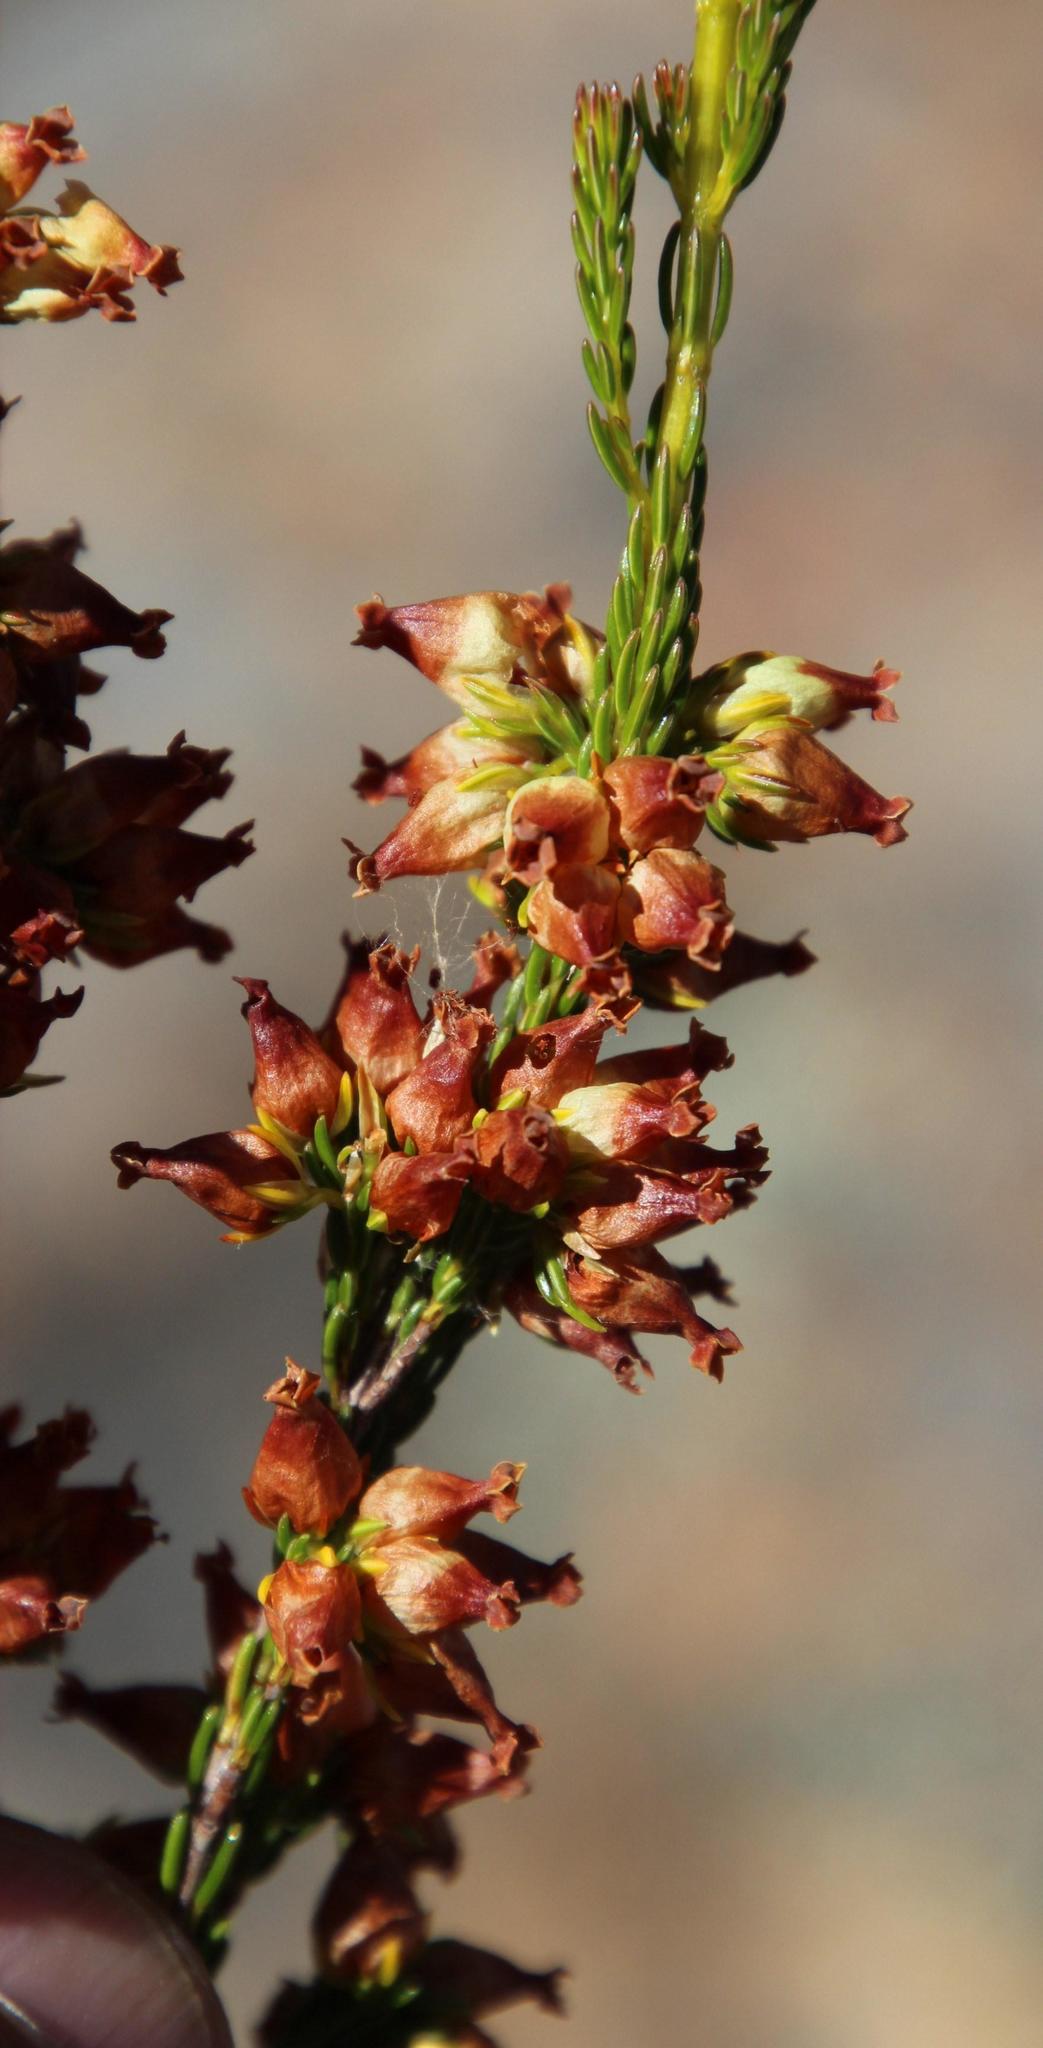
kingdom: Plantae
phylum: Tracheophyta
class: Magnoliopsida
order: Ericales
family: Ericaceae
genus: Erica
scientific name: Erica caffra
